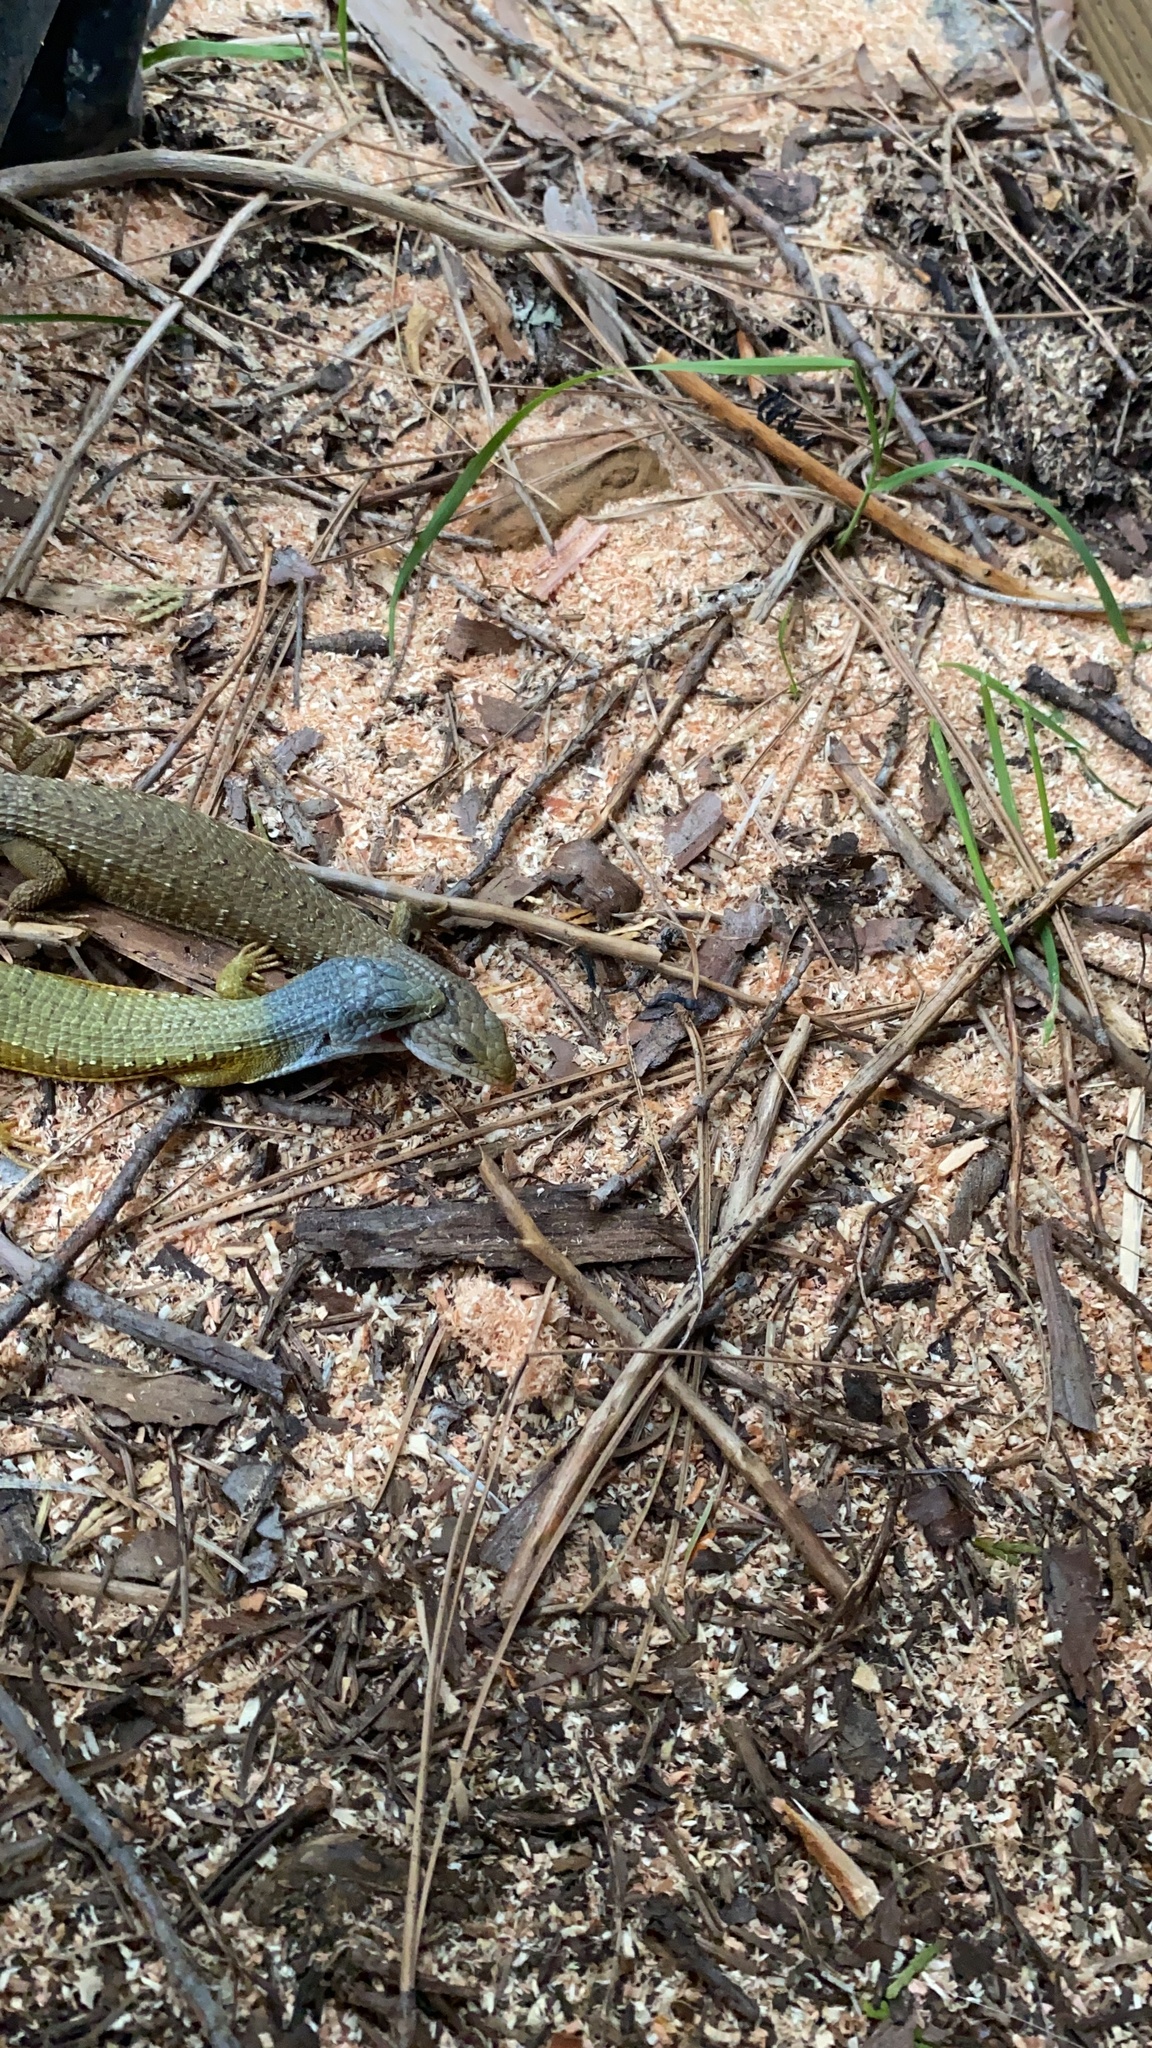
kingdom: Animalia
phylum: Chordata
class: Squamata
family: Anguidae
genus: Elgaria
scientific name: Elgaria coerulea
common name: Northern alligator lizard
